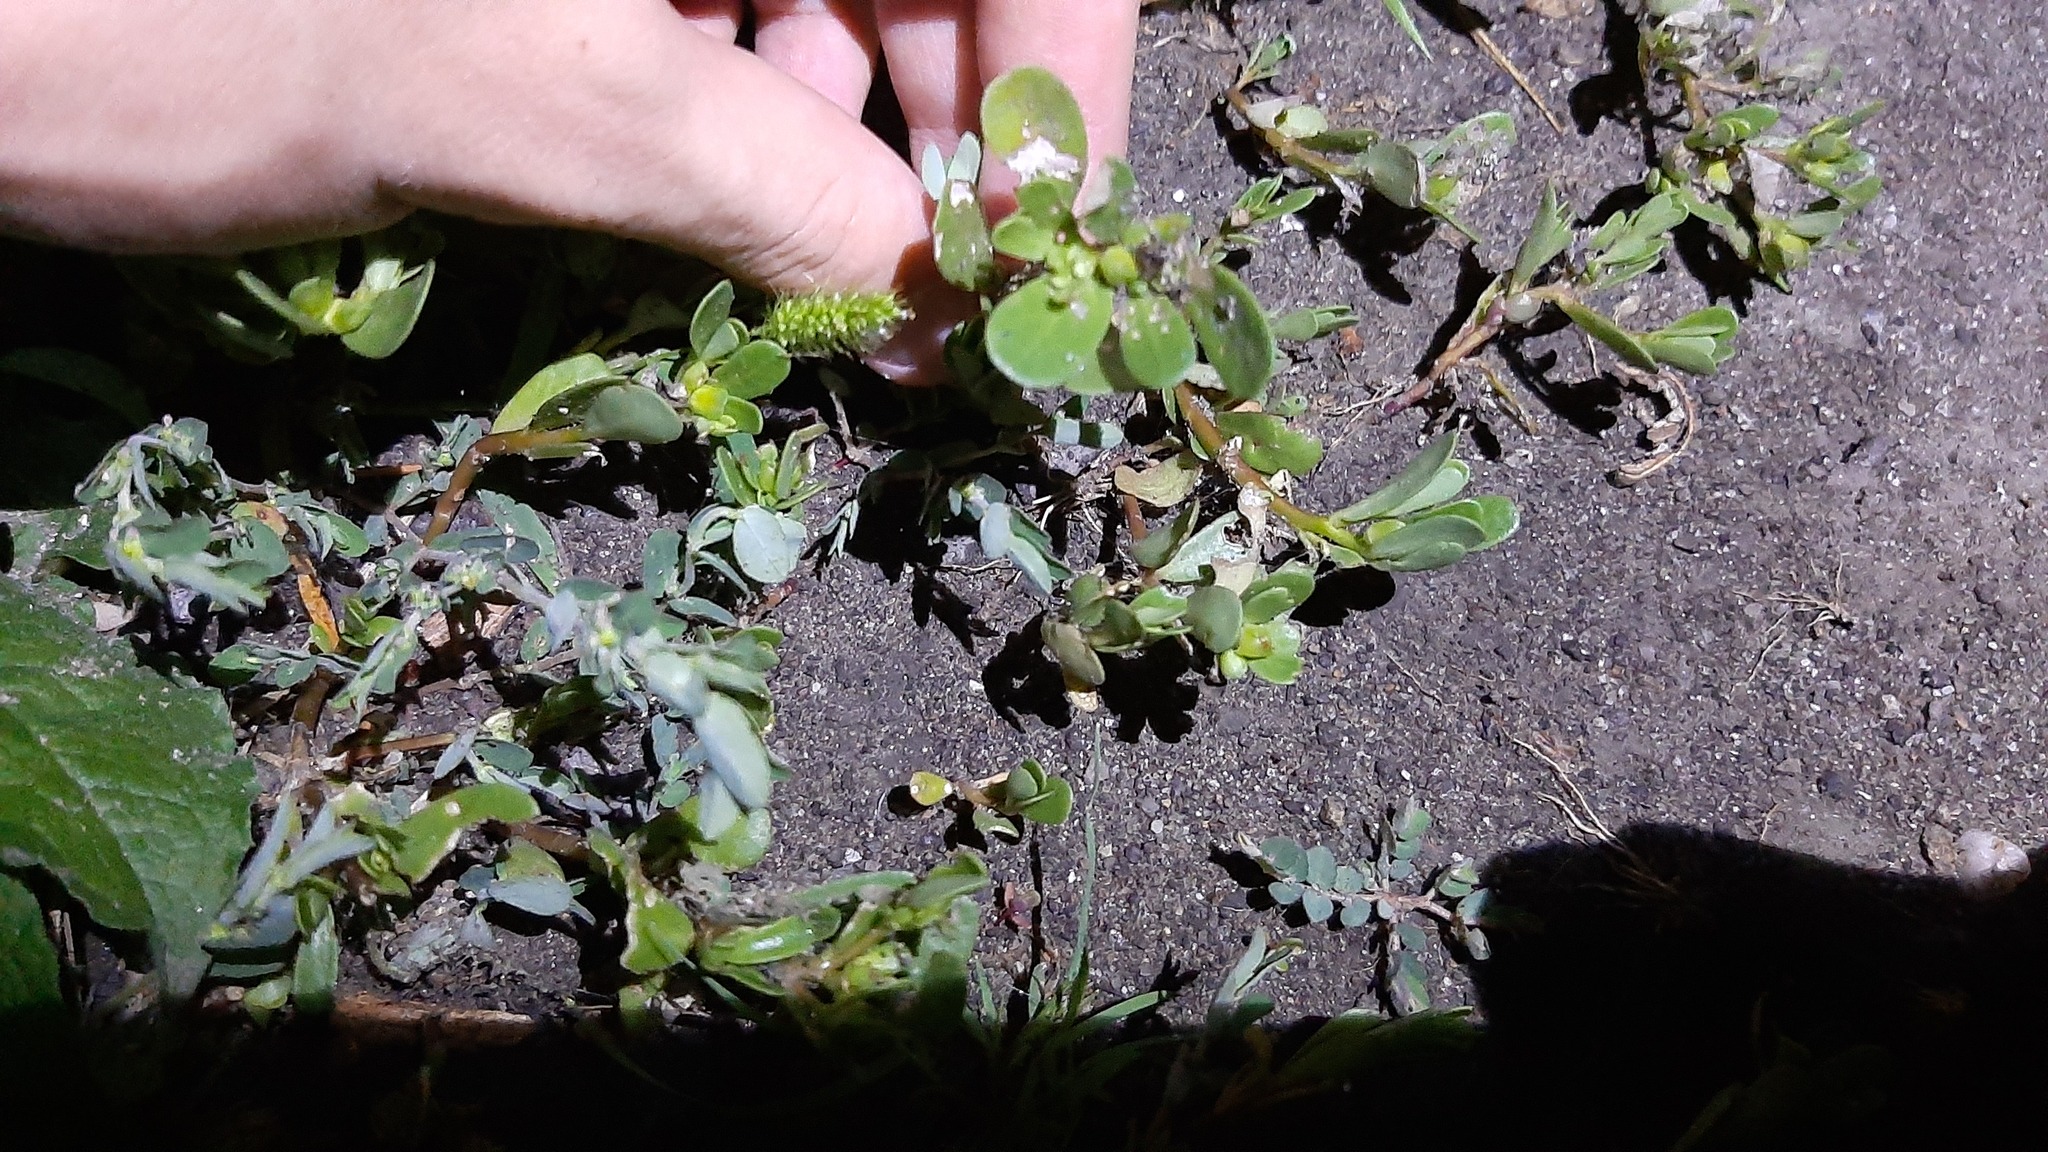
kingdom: Plantae
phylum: Tracheophyta
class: Magnoliopsida
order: Caryophyllales
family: Portulacaceae
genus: Portulaca
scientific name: Portulaca oleracea
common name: Common purslane
